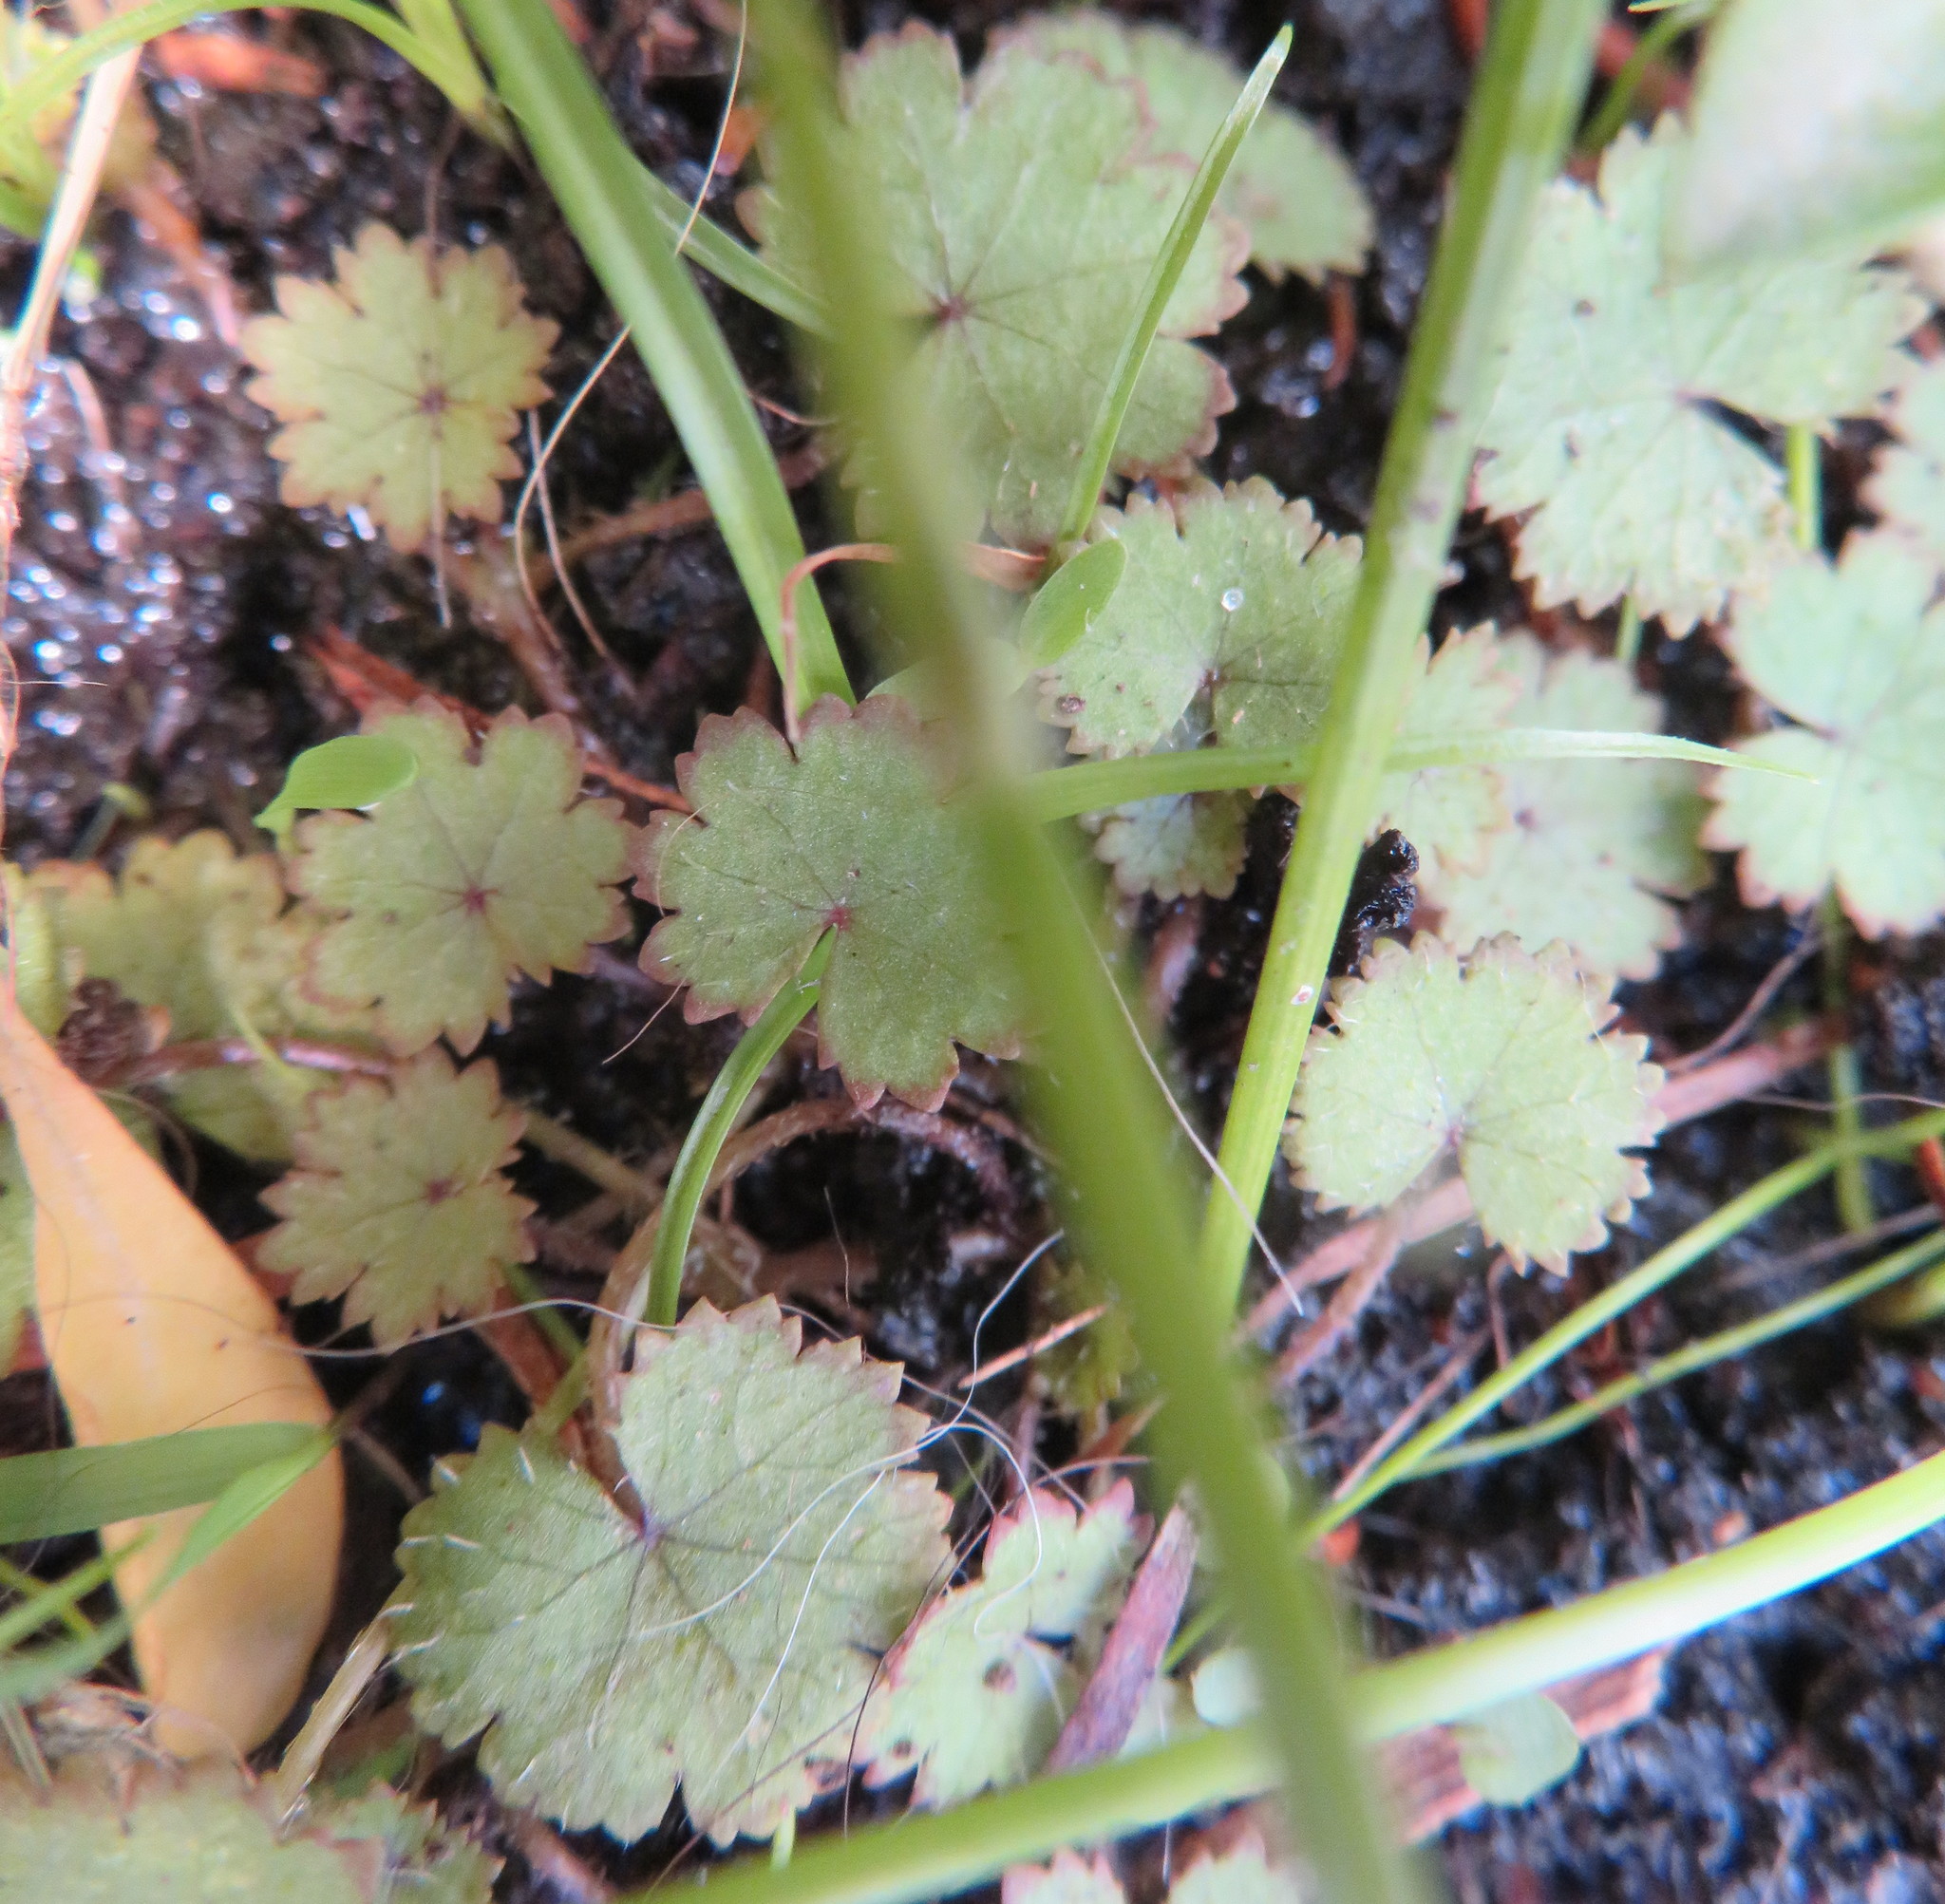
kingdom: Plantae
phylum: Tracheophyta
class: Magnoliopsida
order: Apiales
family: Araliaceae
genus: Hydrocotyle
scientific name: Hydrocotyle moschata
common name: Hairy pennywort
